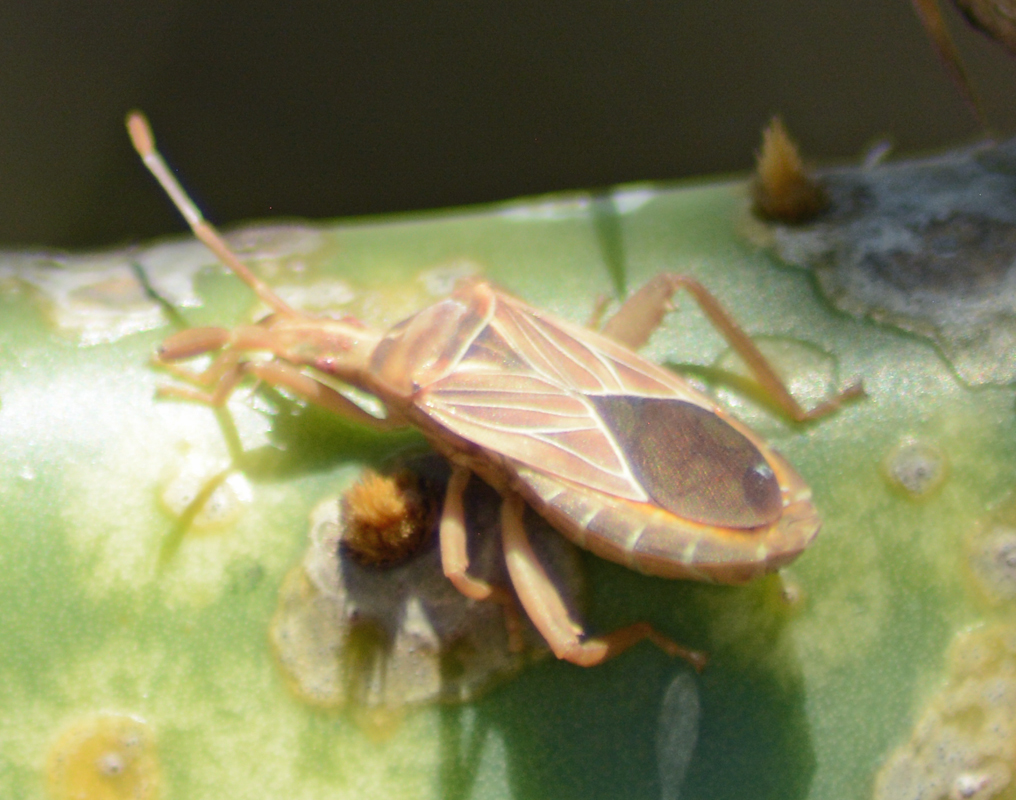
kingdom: Animalia
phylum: Arthropoda
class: Insecta
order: Hemiptera
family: Coreidae
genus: Chelinidea
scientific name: Chelinidea vittiger
